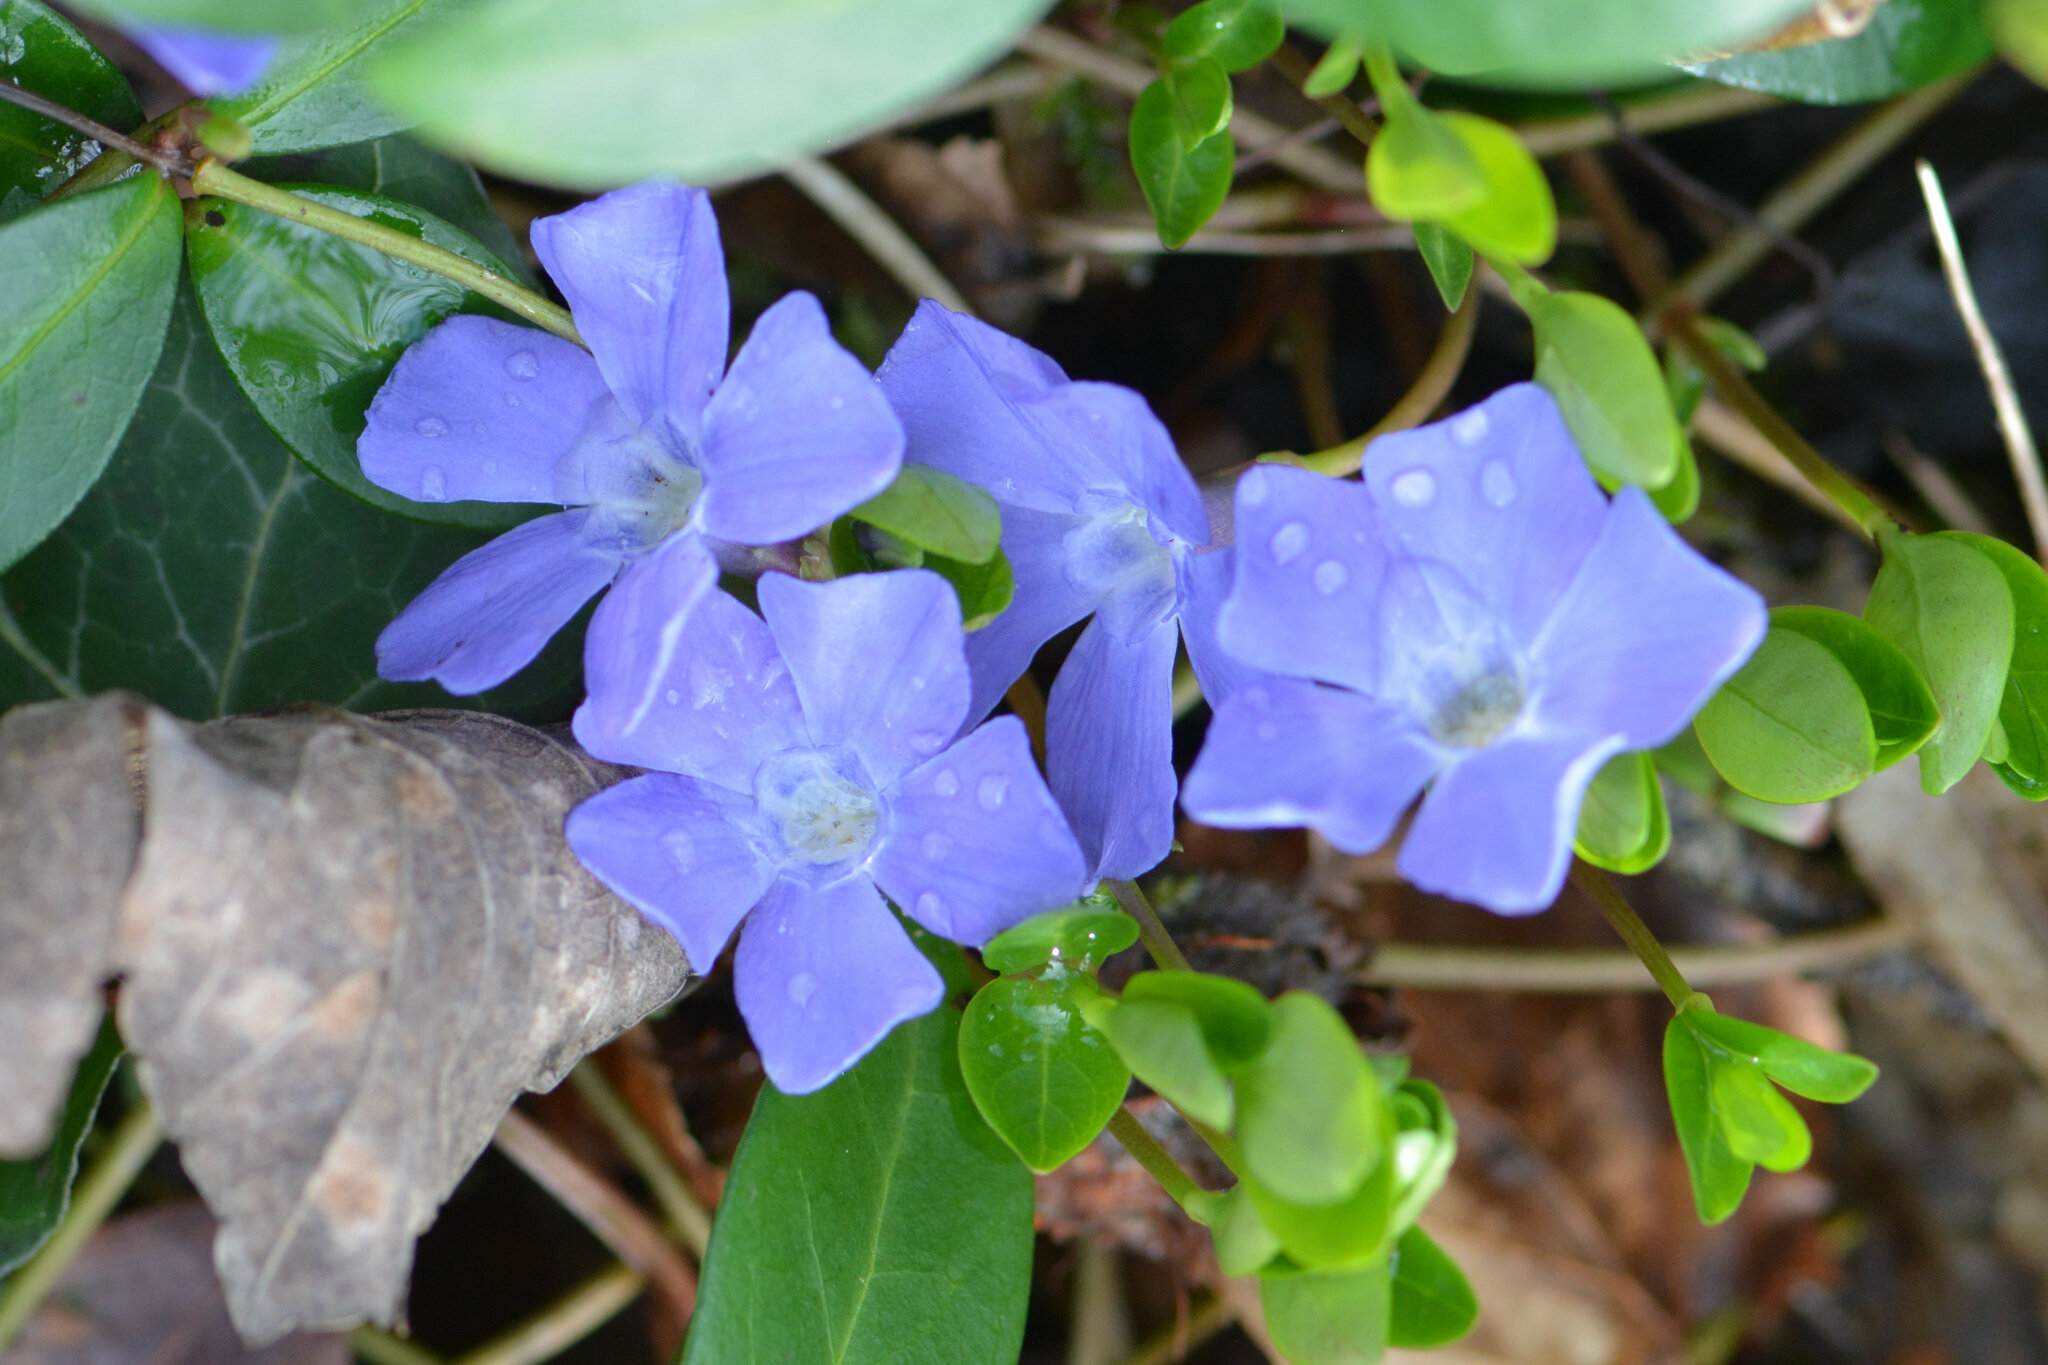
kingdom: Plantae
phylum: Tracheophyta
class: Magnoliopsida
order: Gentianales
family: Apocynaceae
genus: Vinca
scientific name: Vinca minor
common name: Lesser periwinkle
